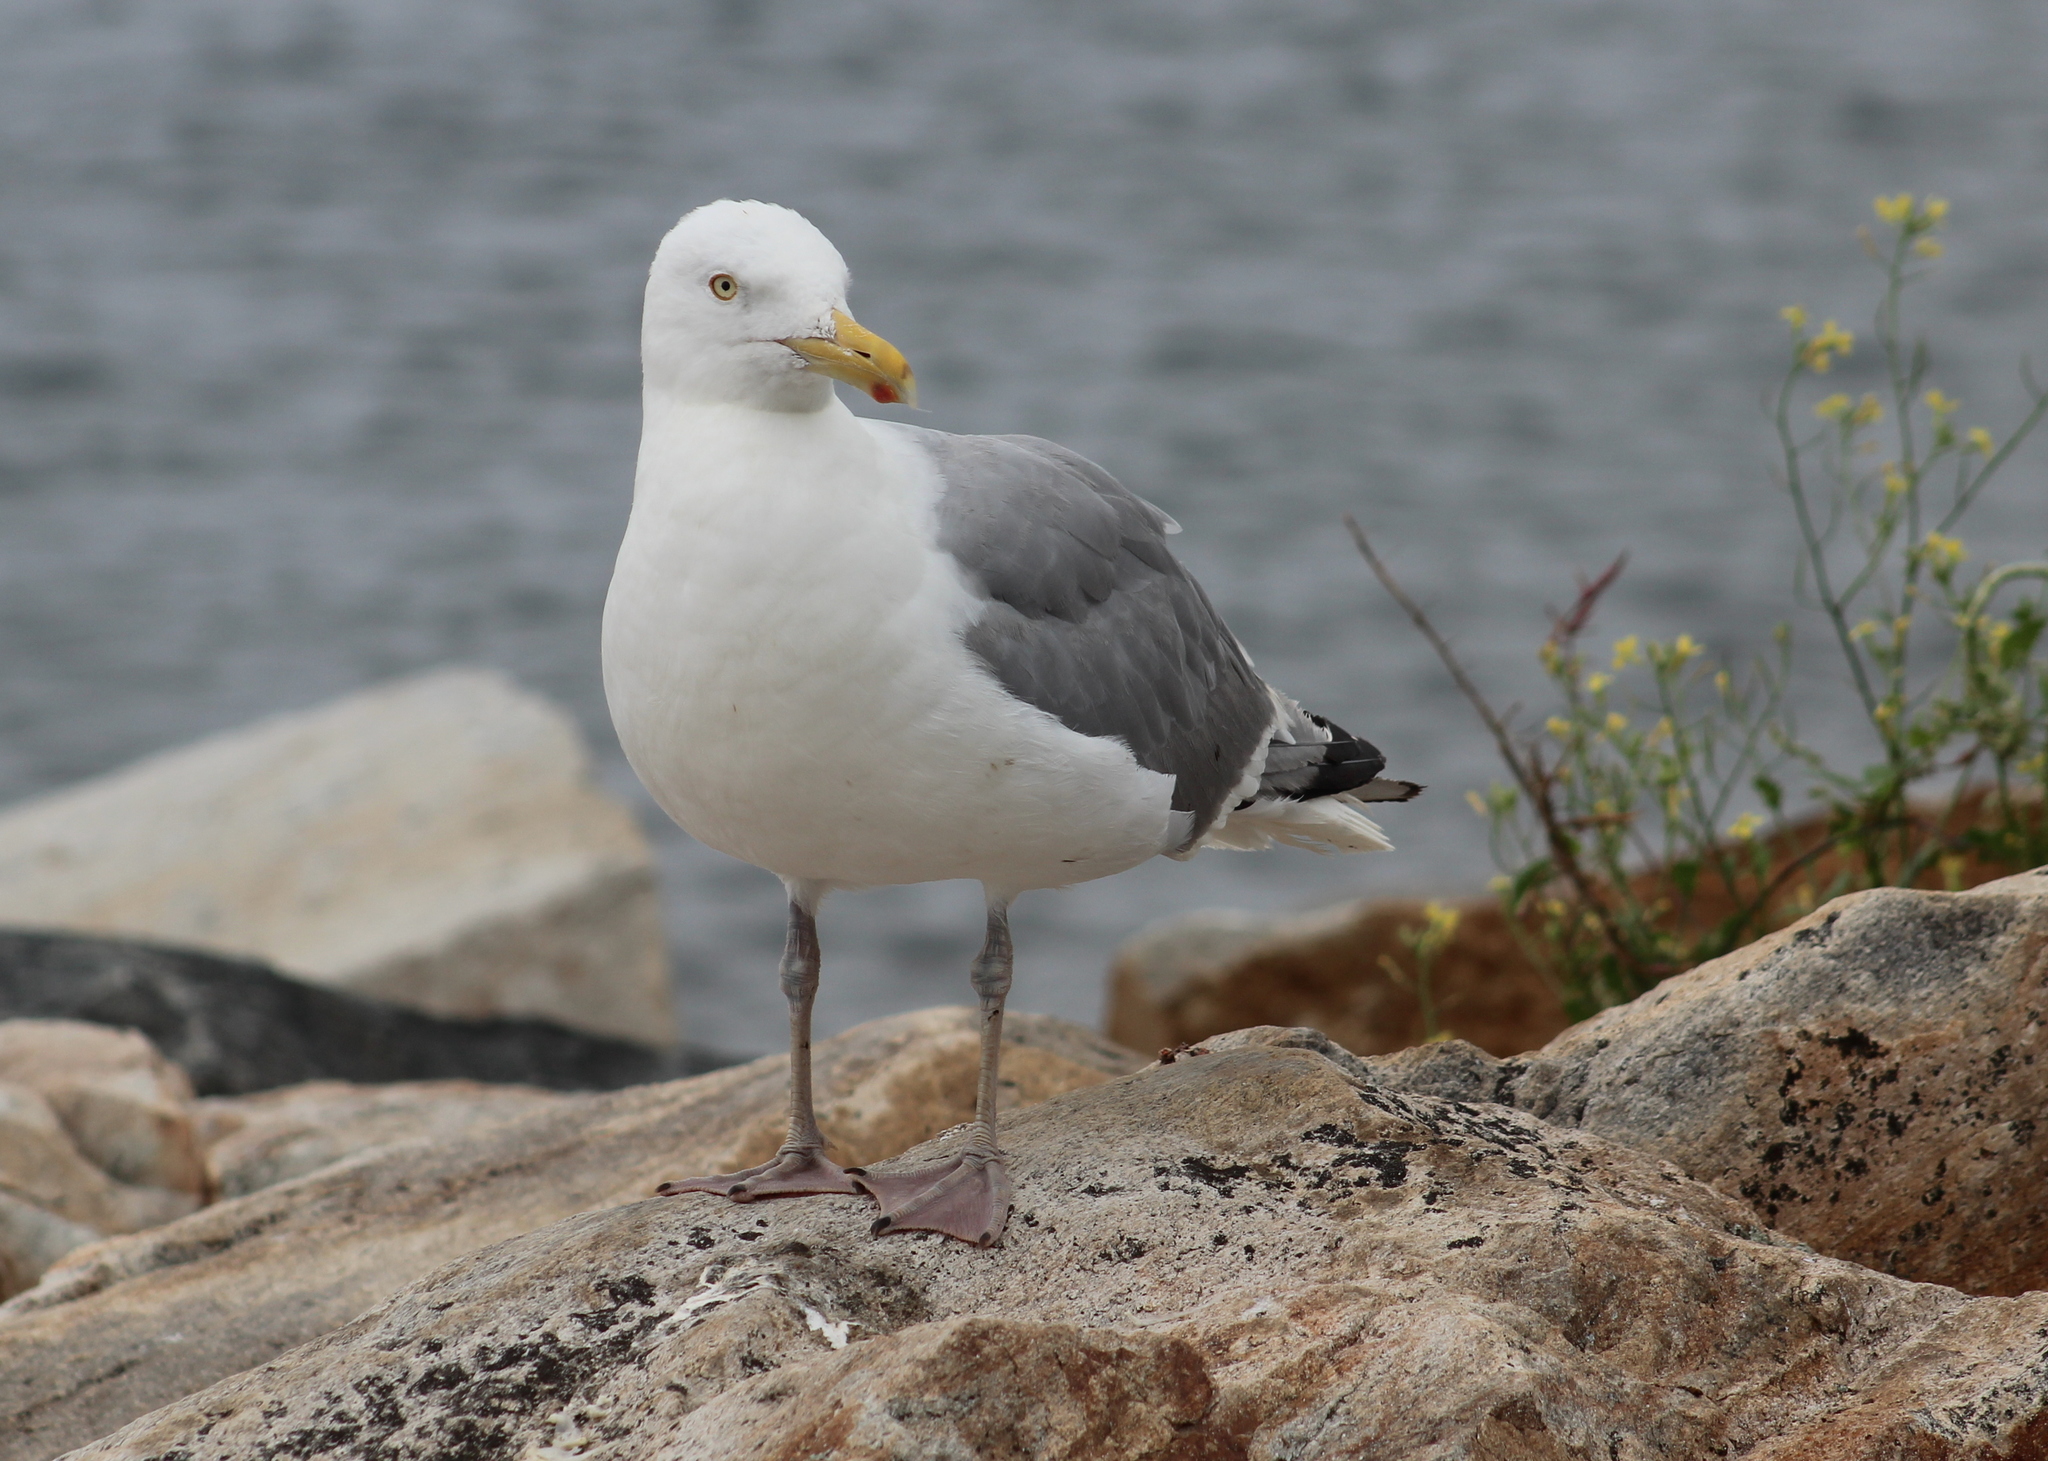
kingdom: Animalia
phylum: Chordata
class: Aves
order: Charadriiformes
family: Laridae
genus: Larus
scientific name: Larus argentatus
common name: Herring gull
